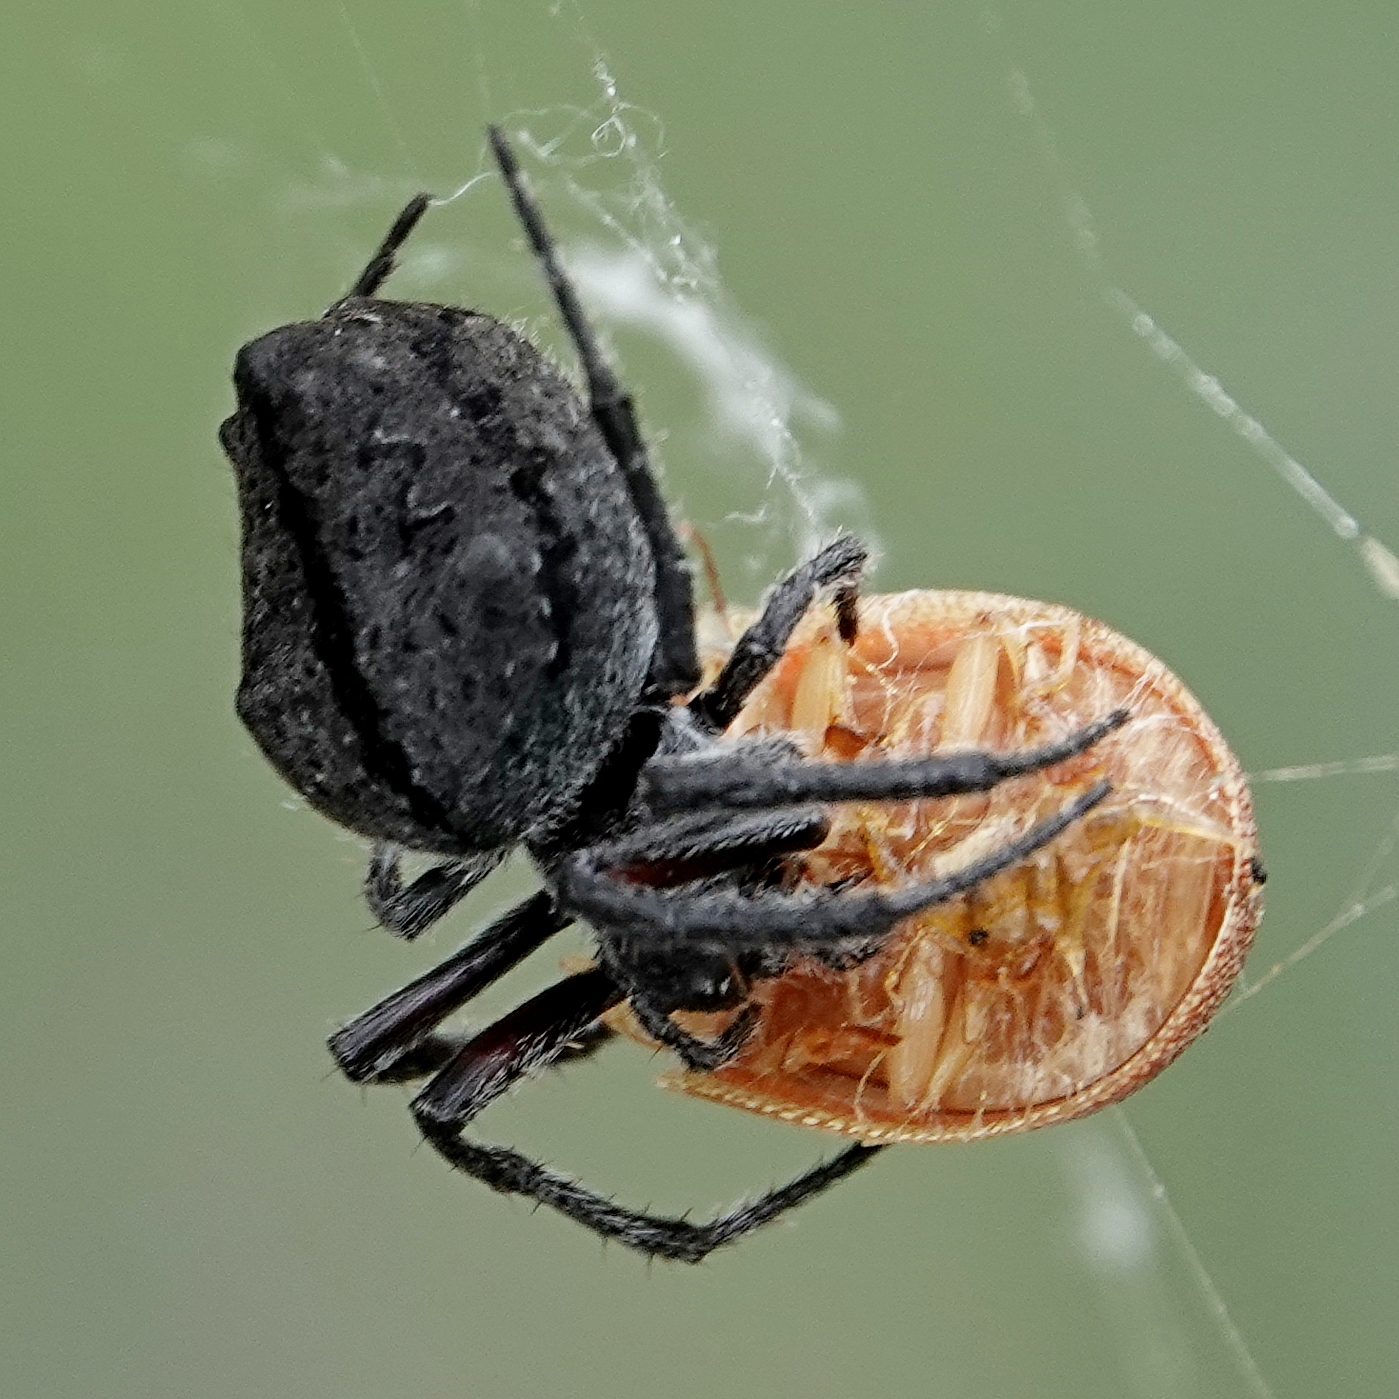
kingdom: Animalia
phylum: Arthropoda
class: Arachnida
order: Araneae
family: Araneidae
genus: Eriophora
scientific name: Eriophora pustulosa
